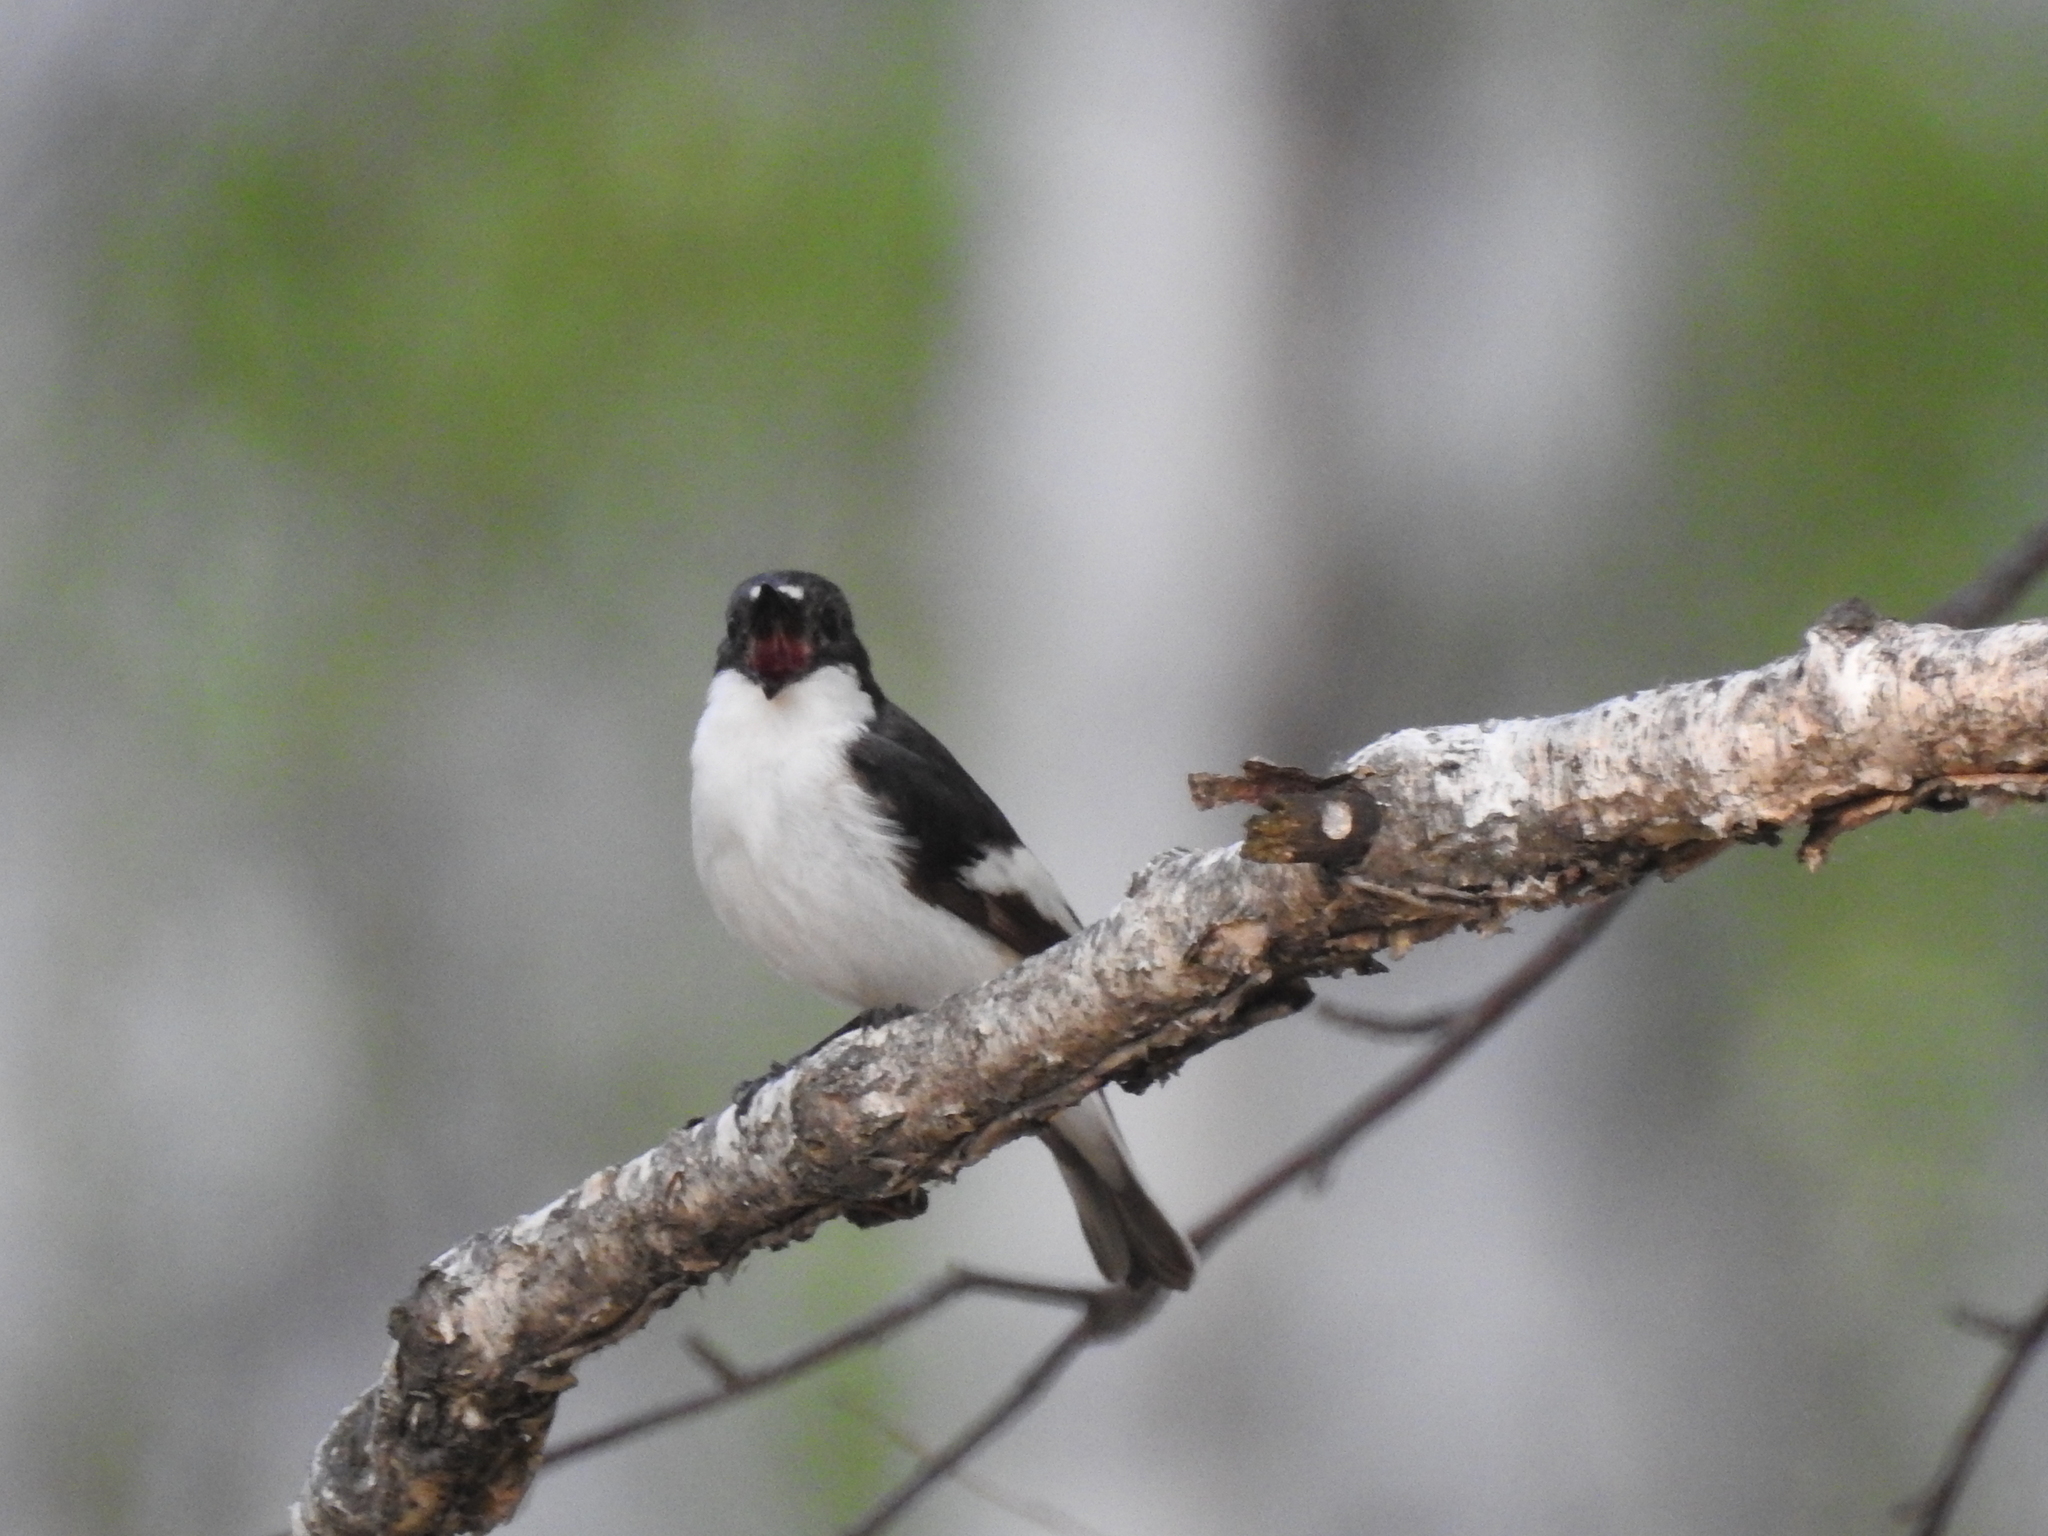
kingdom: Animalia
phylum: Chordata
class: Aves
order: Passeriformes
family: Muscicapidae
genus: Ficedula
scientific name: Ficedula hypoleuca
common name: European pied flycatcher
